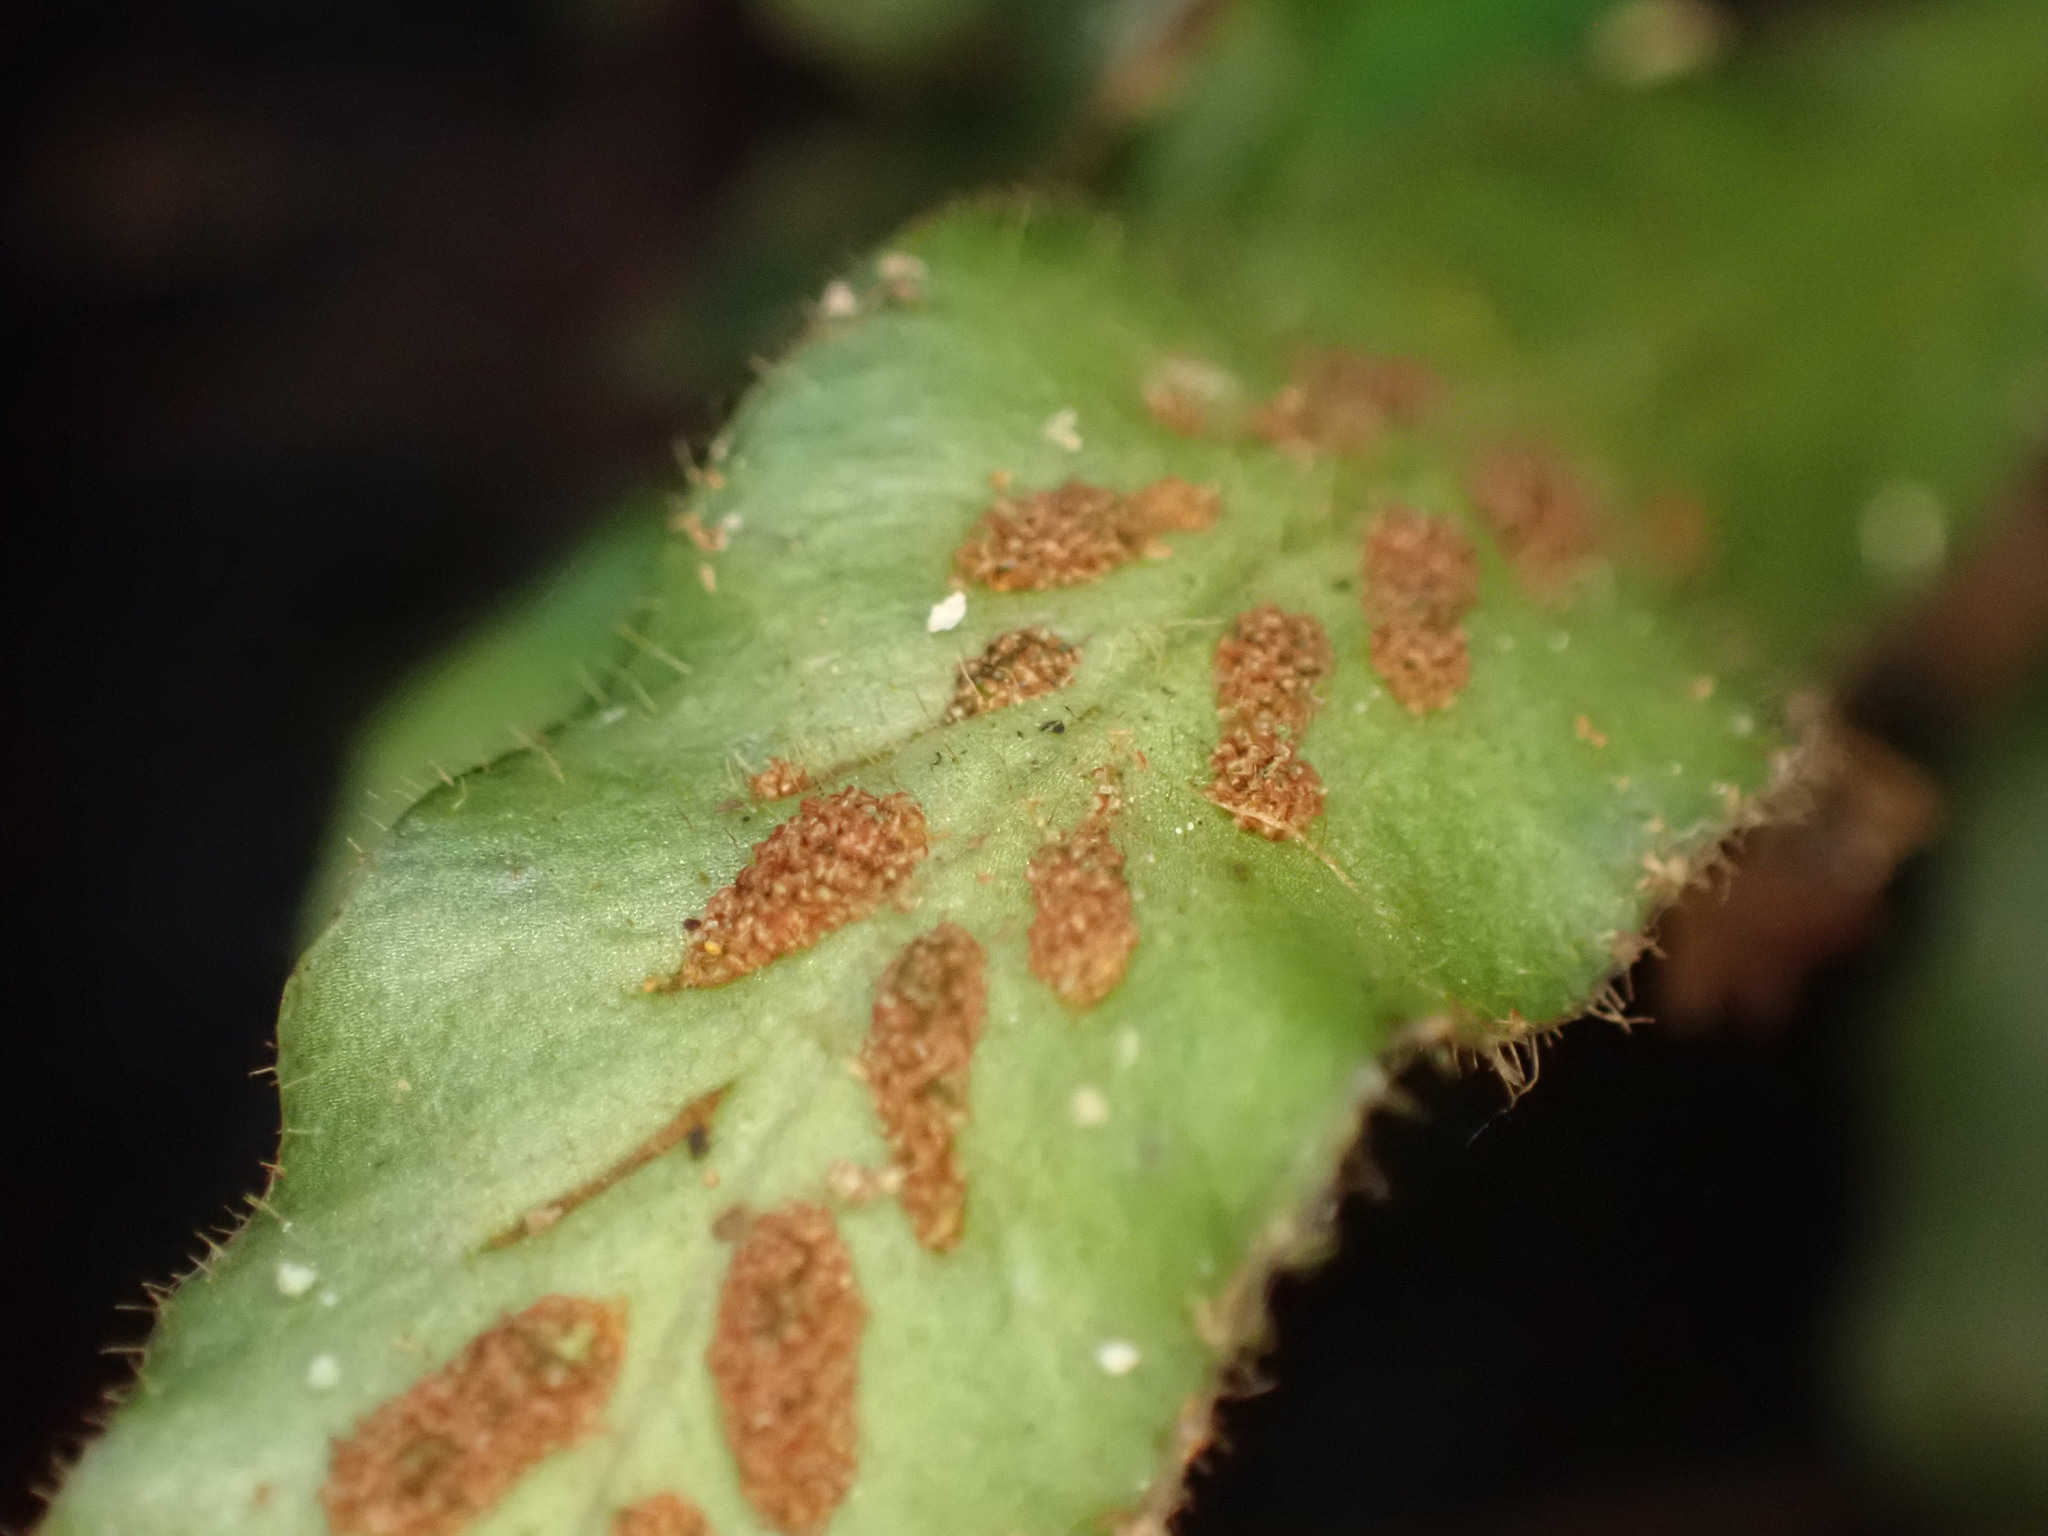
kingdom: Plantae
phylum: Tracheophyta
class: Polypodiopsida
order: Polypodiales
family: Polypodiaceae
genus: Notogrammitis
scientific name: Notogrammitis pseudociliata
